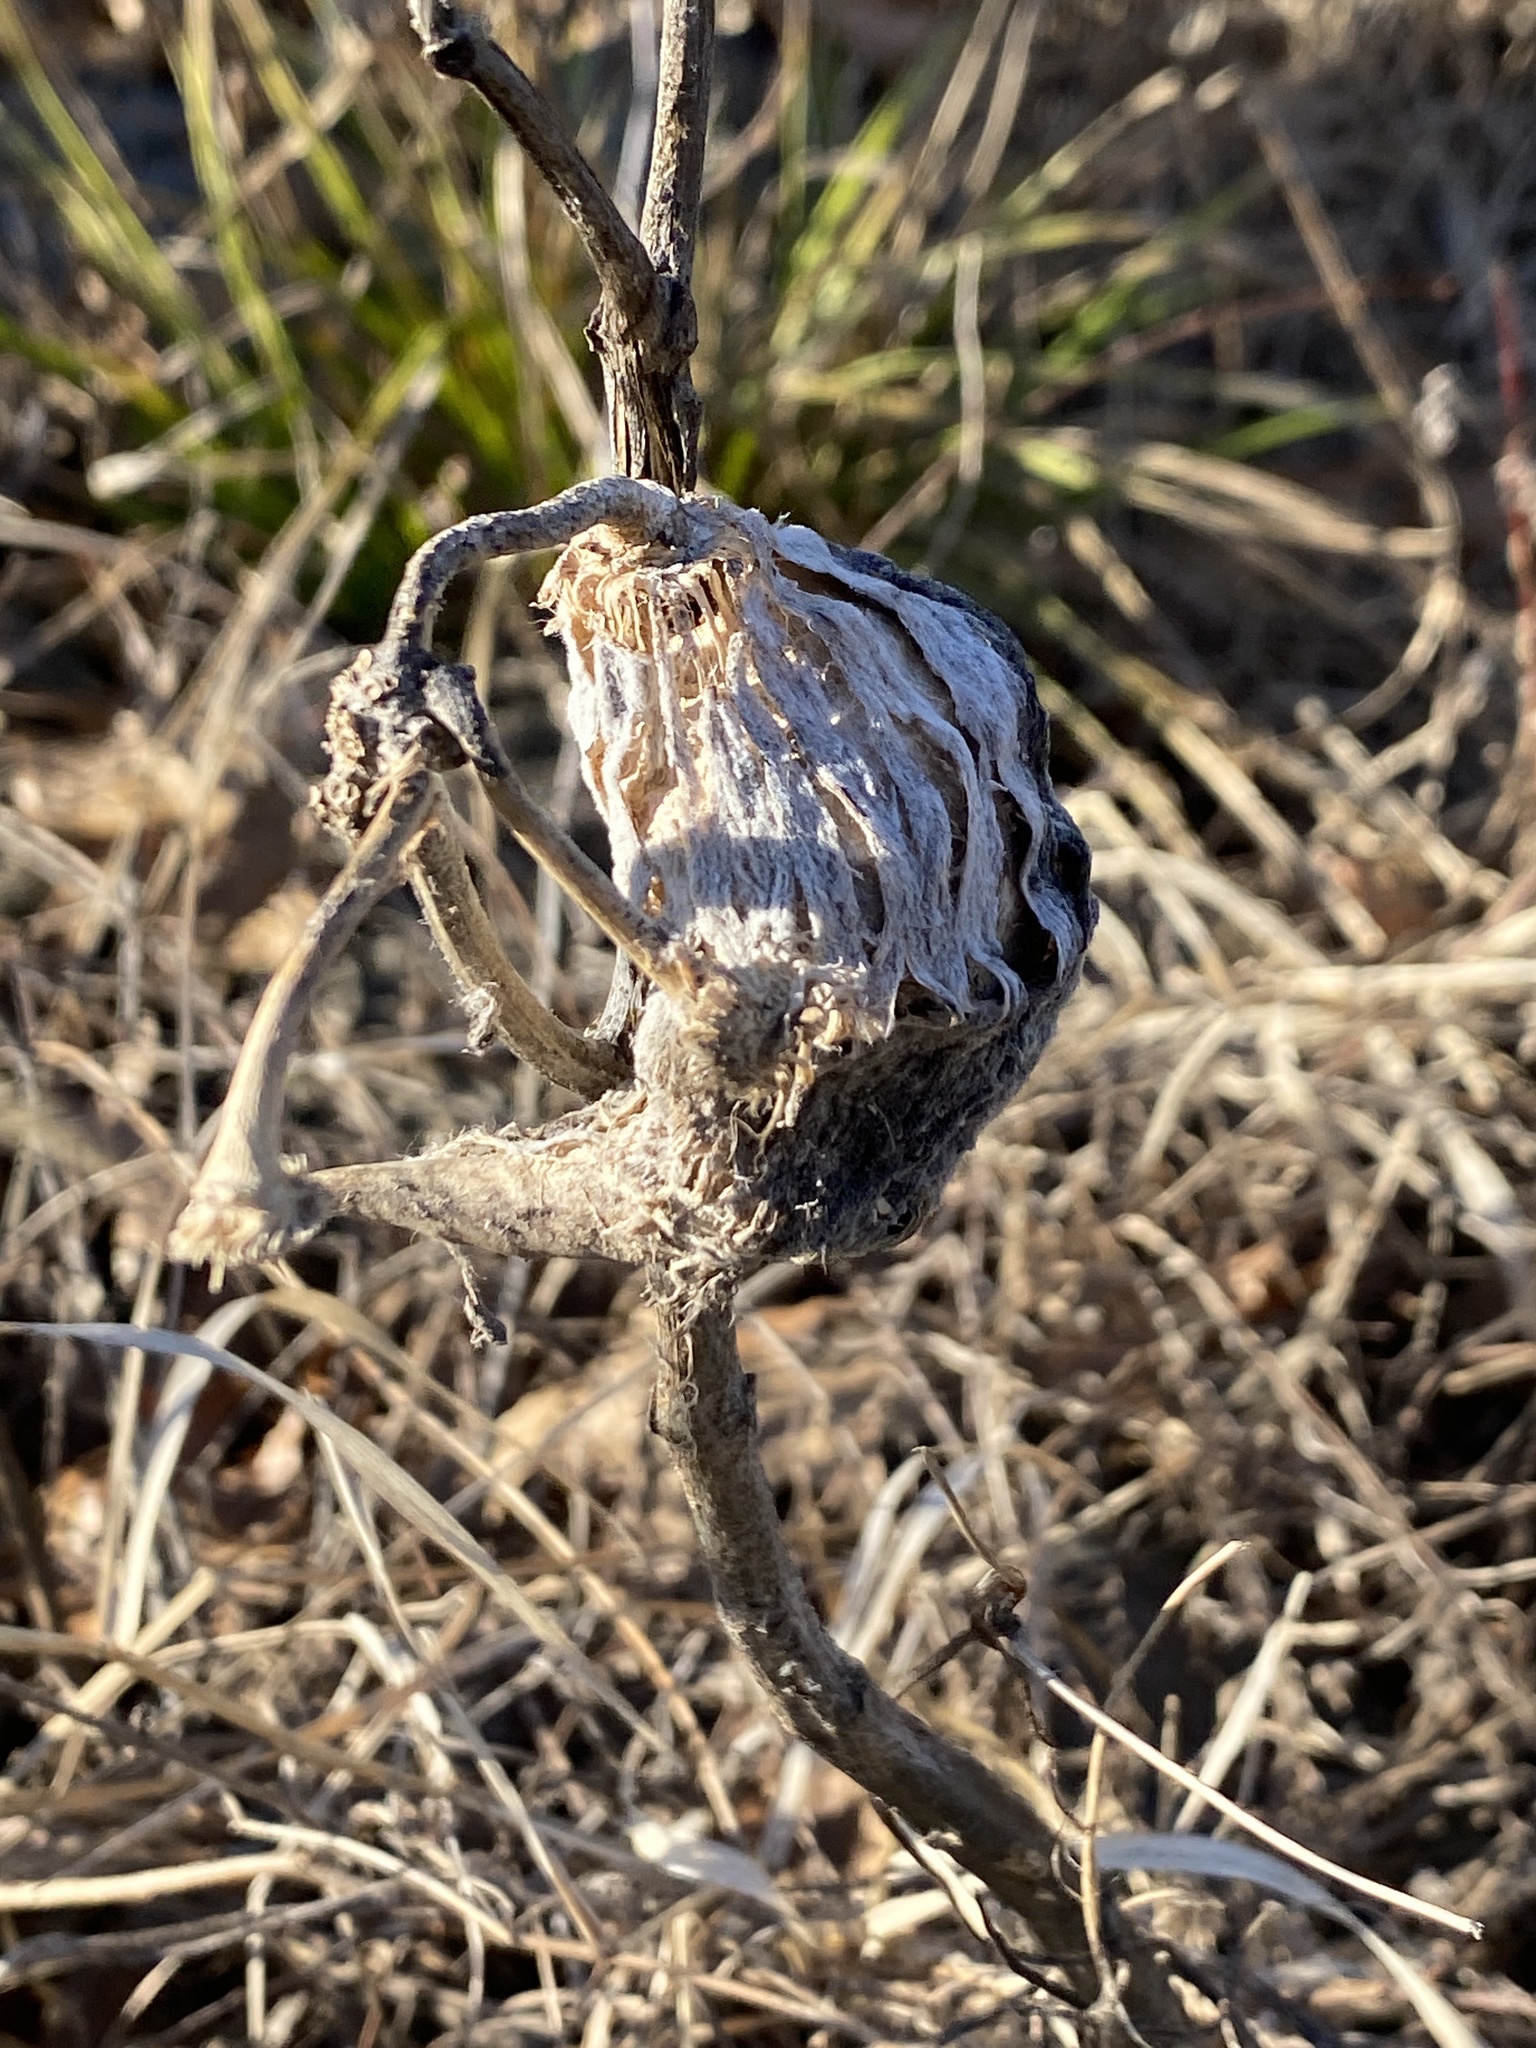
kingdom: Plantae
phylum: Tracheophyta
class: Magnoliopsida
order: Gentianales
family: Apocynaceae
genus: Asclepias
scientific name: Asclepias syriaca
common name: Common milkweed
